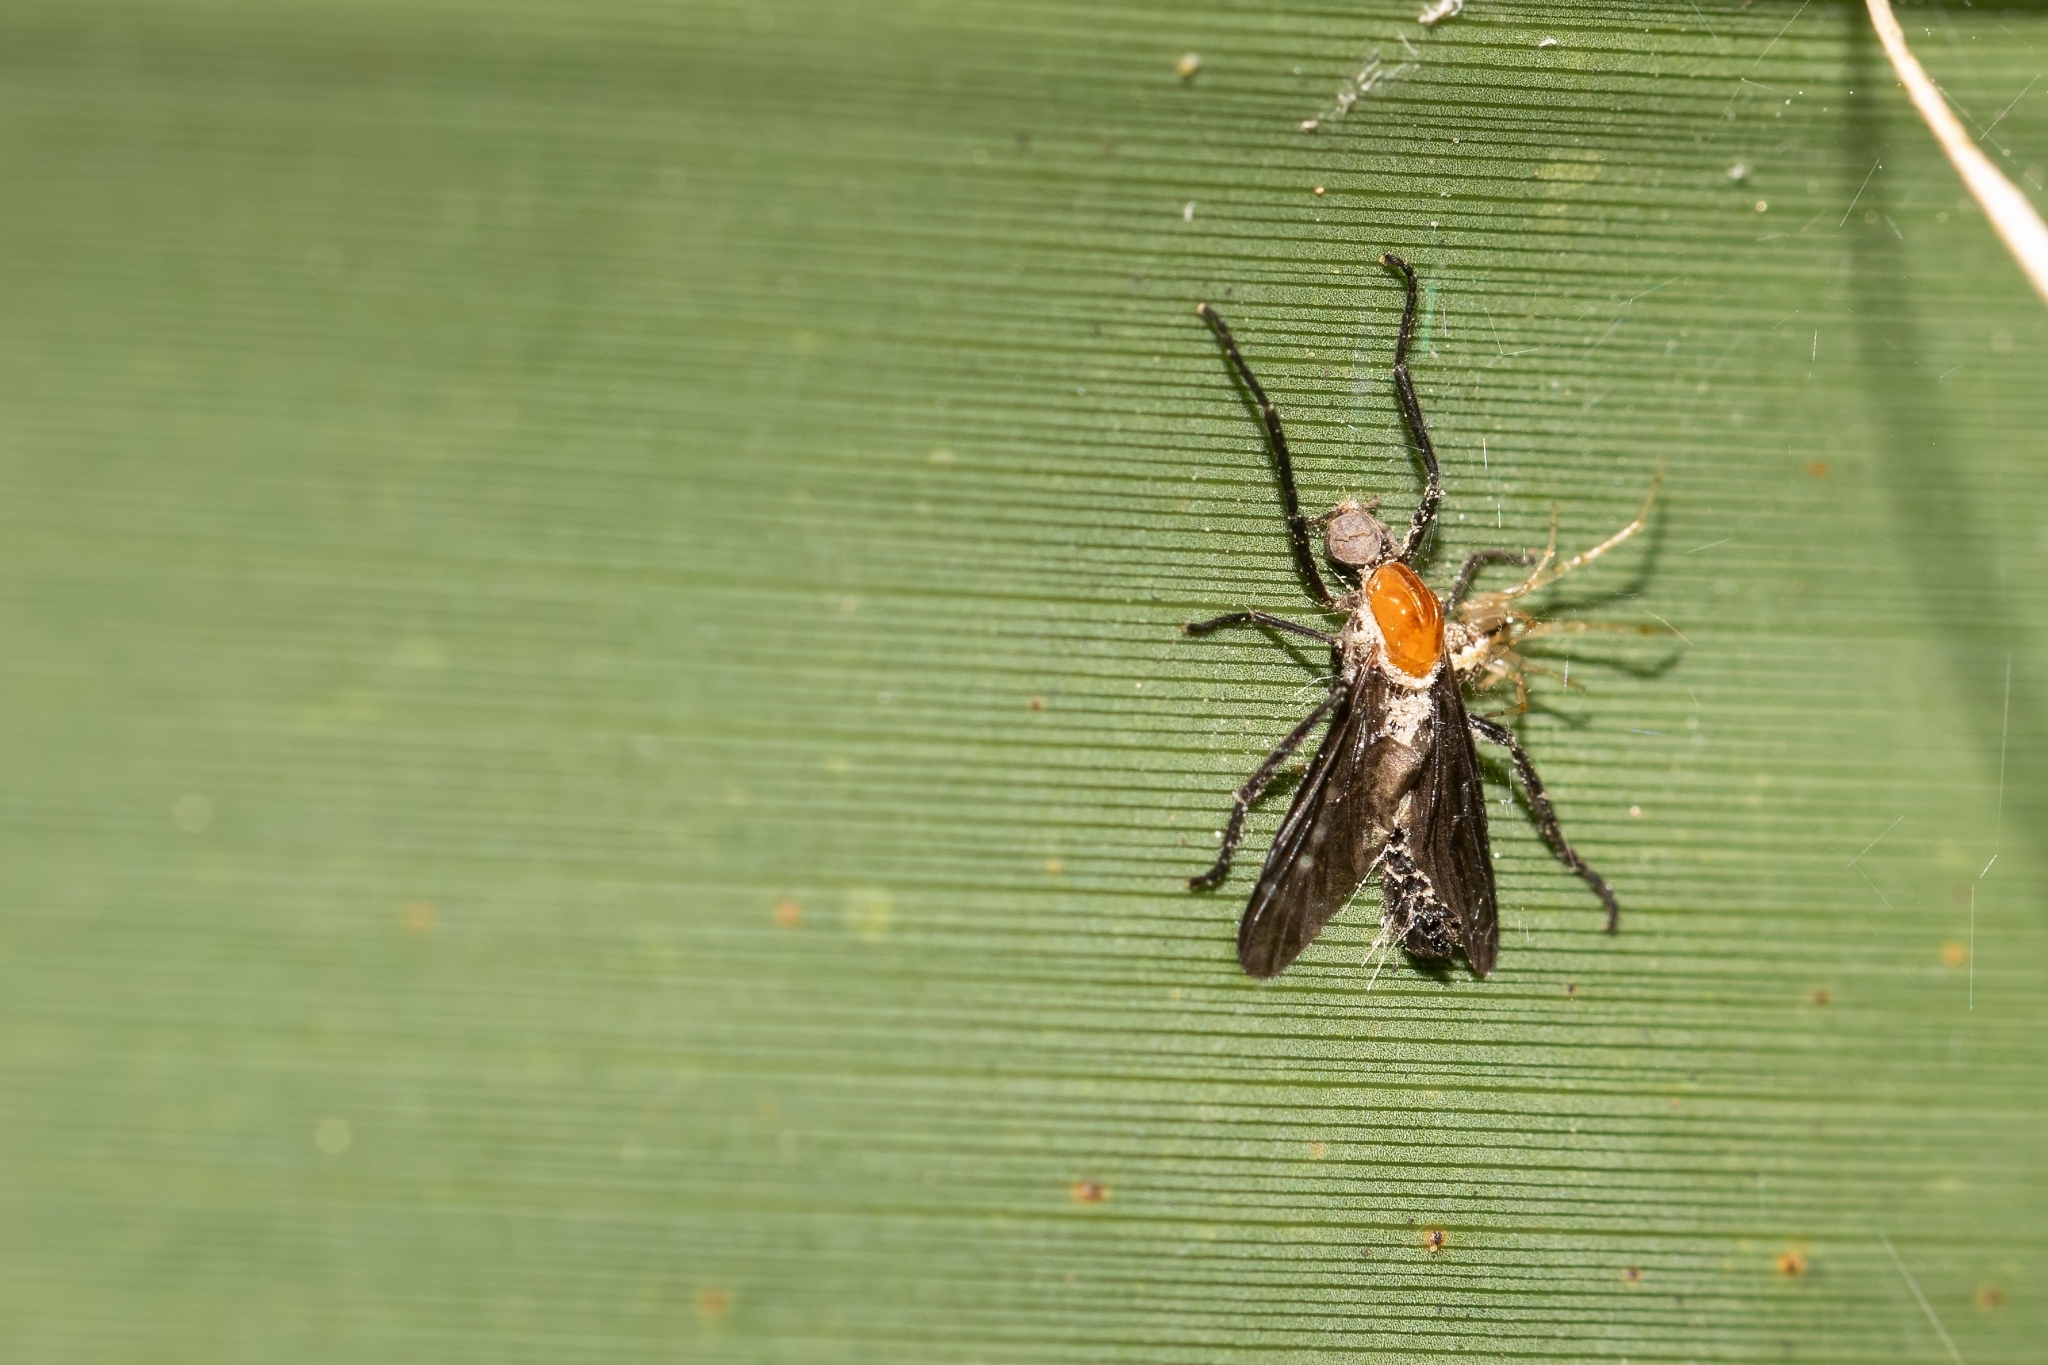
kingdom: Animalia
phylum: Arthropoda
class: Insecta
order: Diptera
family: Bibionidae
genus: Plecia
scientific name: Plecia nearctica
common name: March fly
